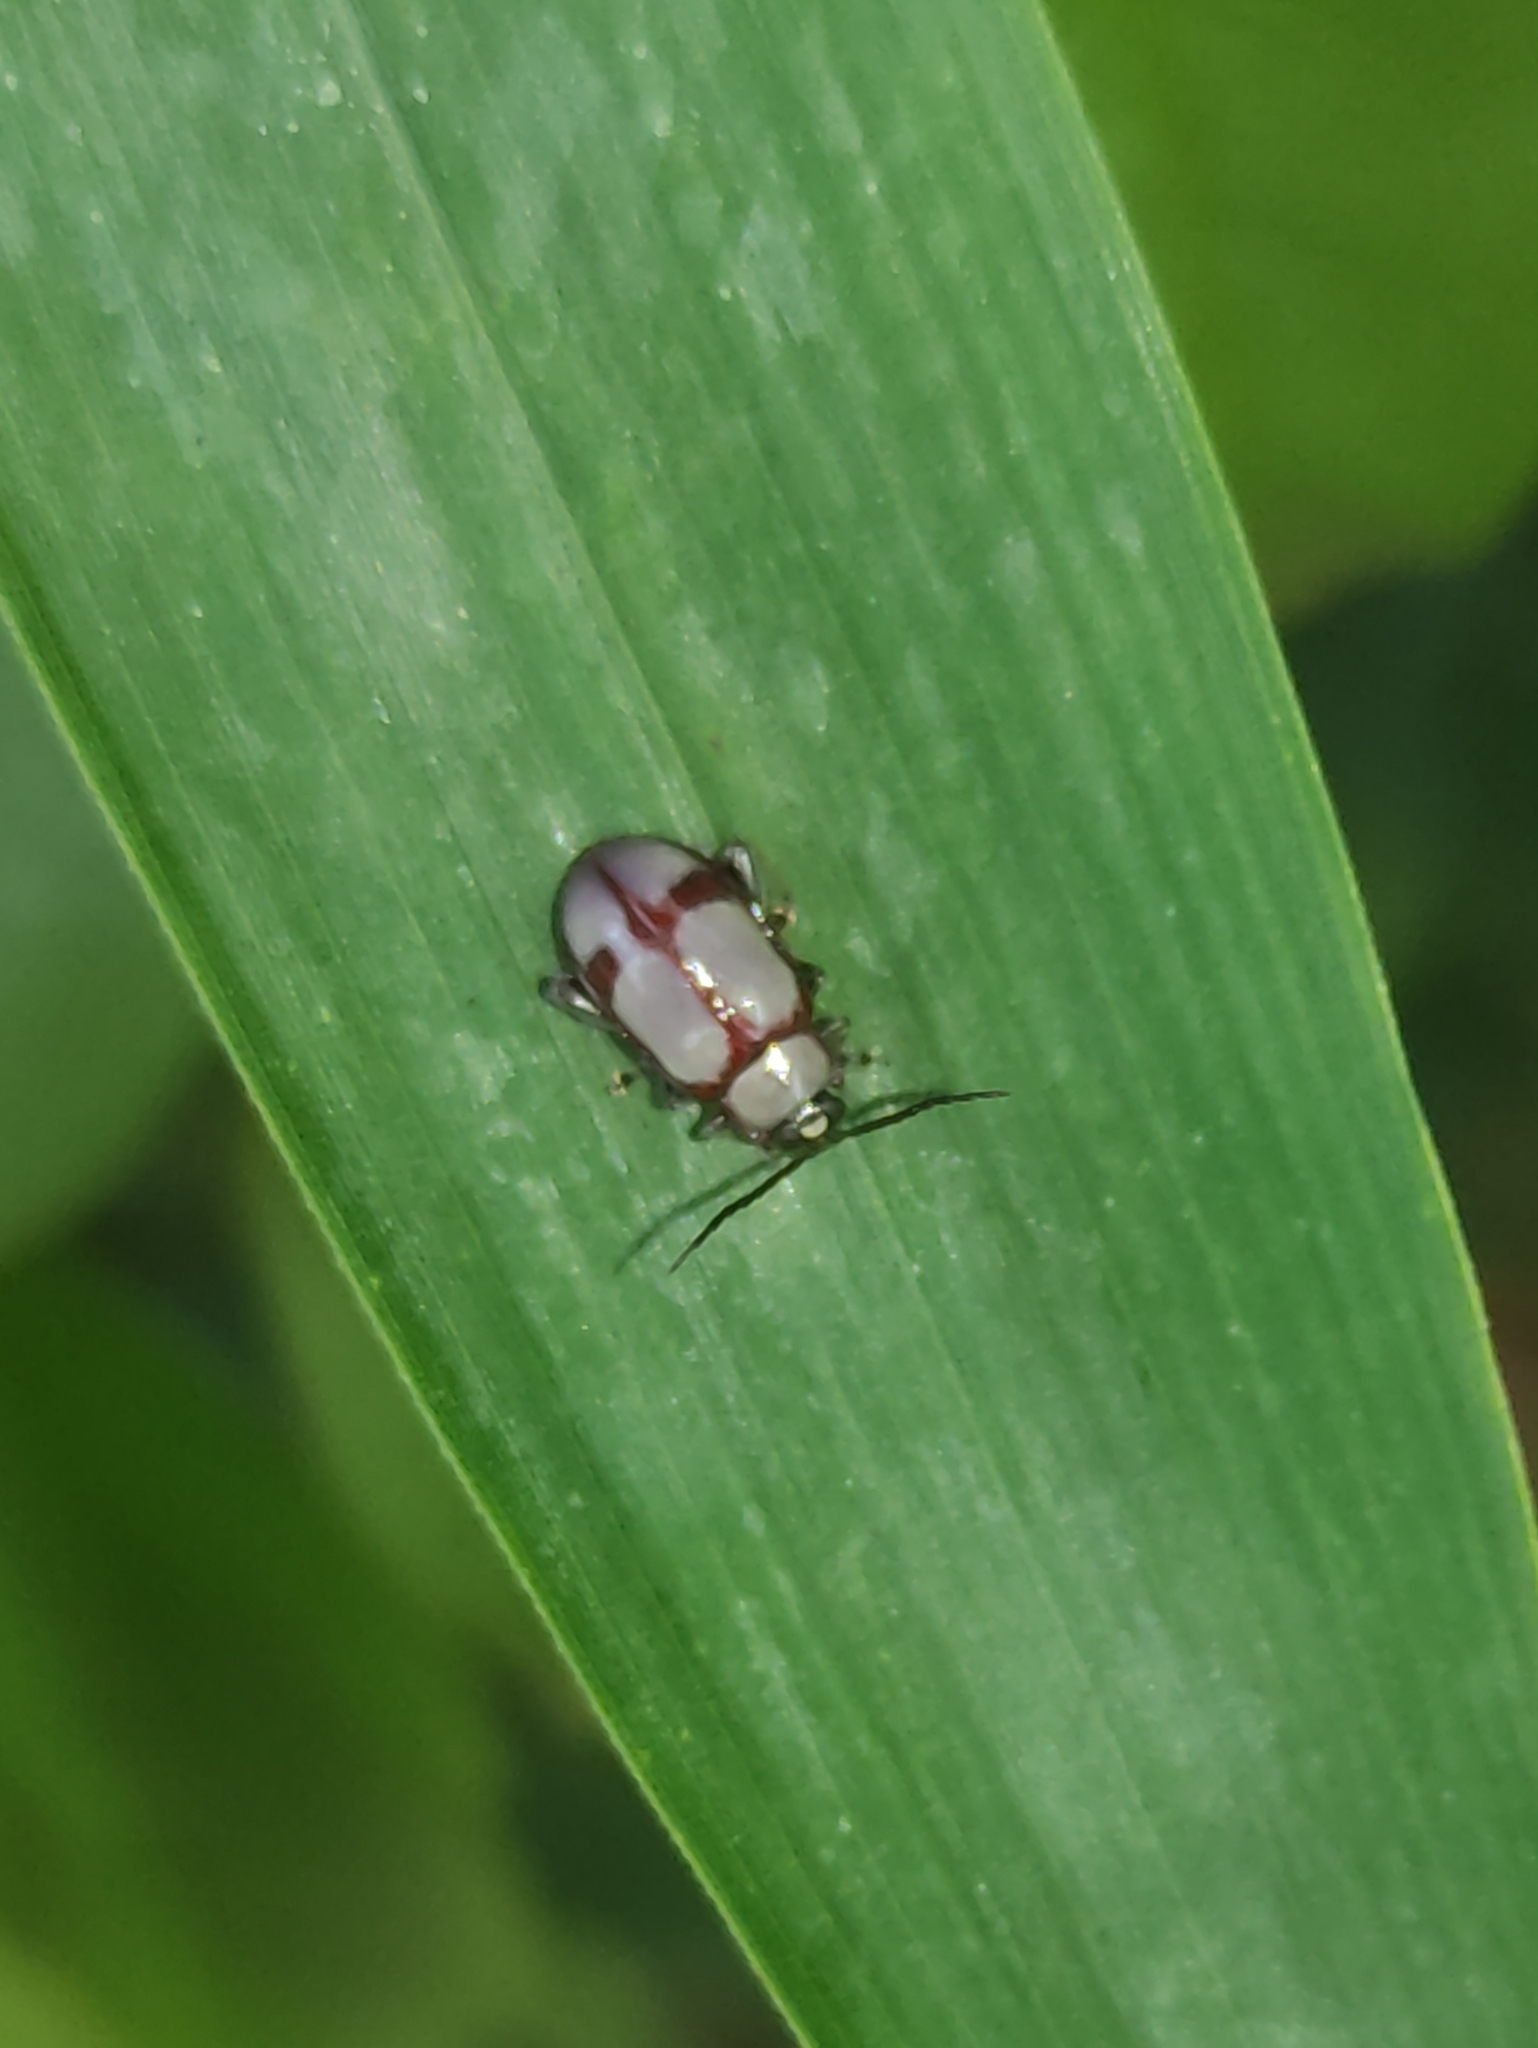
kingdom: Animalia
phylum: Arthropoda
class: Insecta
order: Coleoptera
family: Chrysomelidae
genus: Omophoita
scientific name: Omophoita
